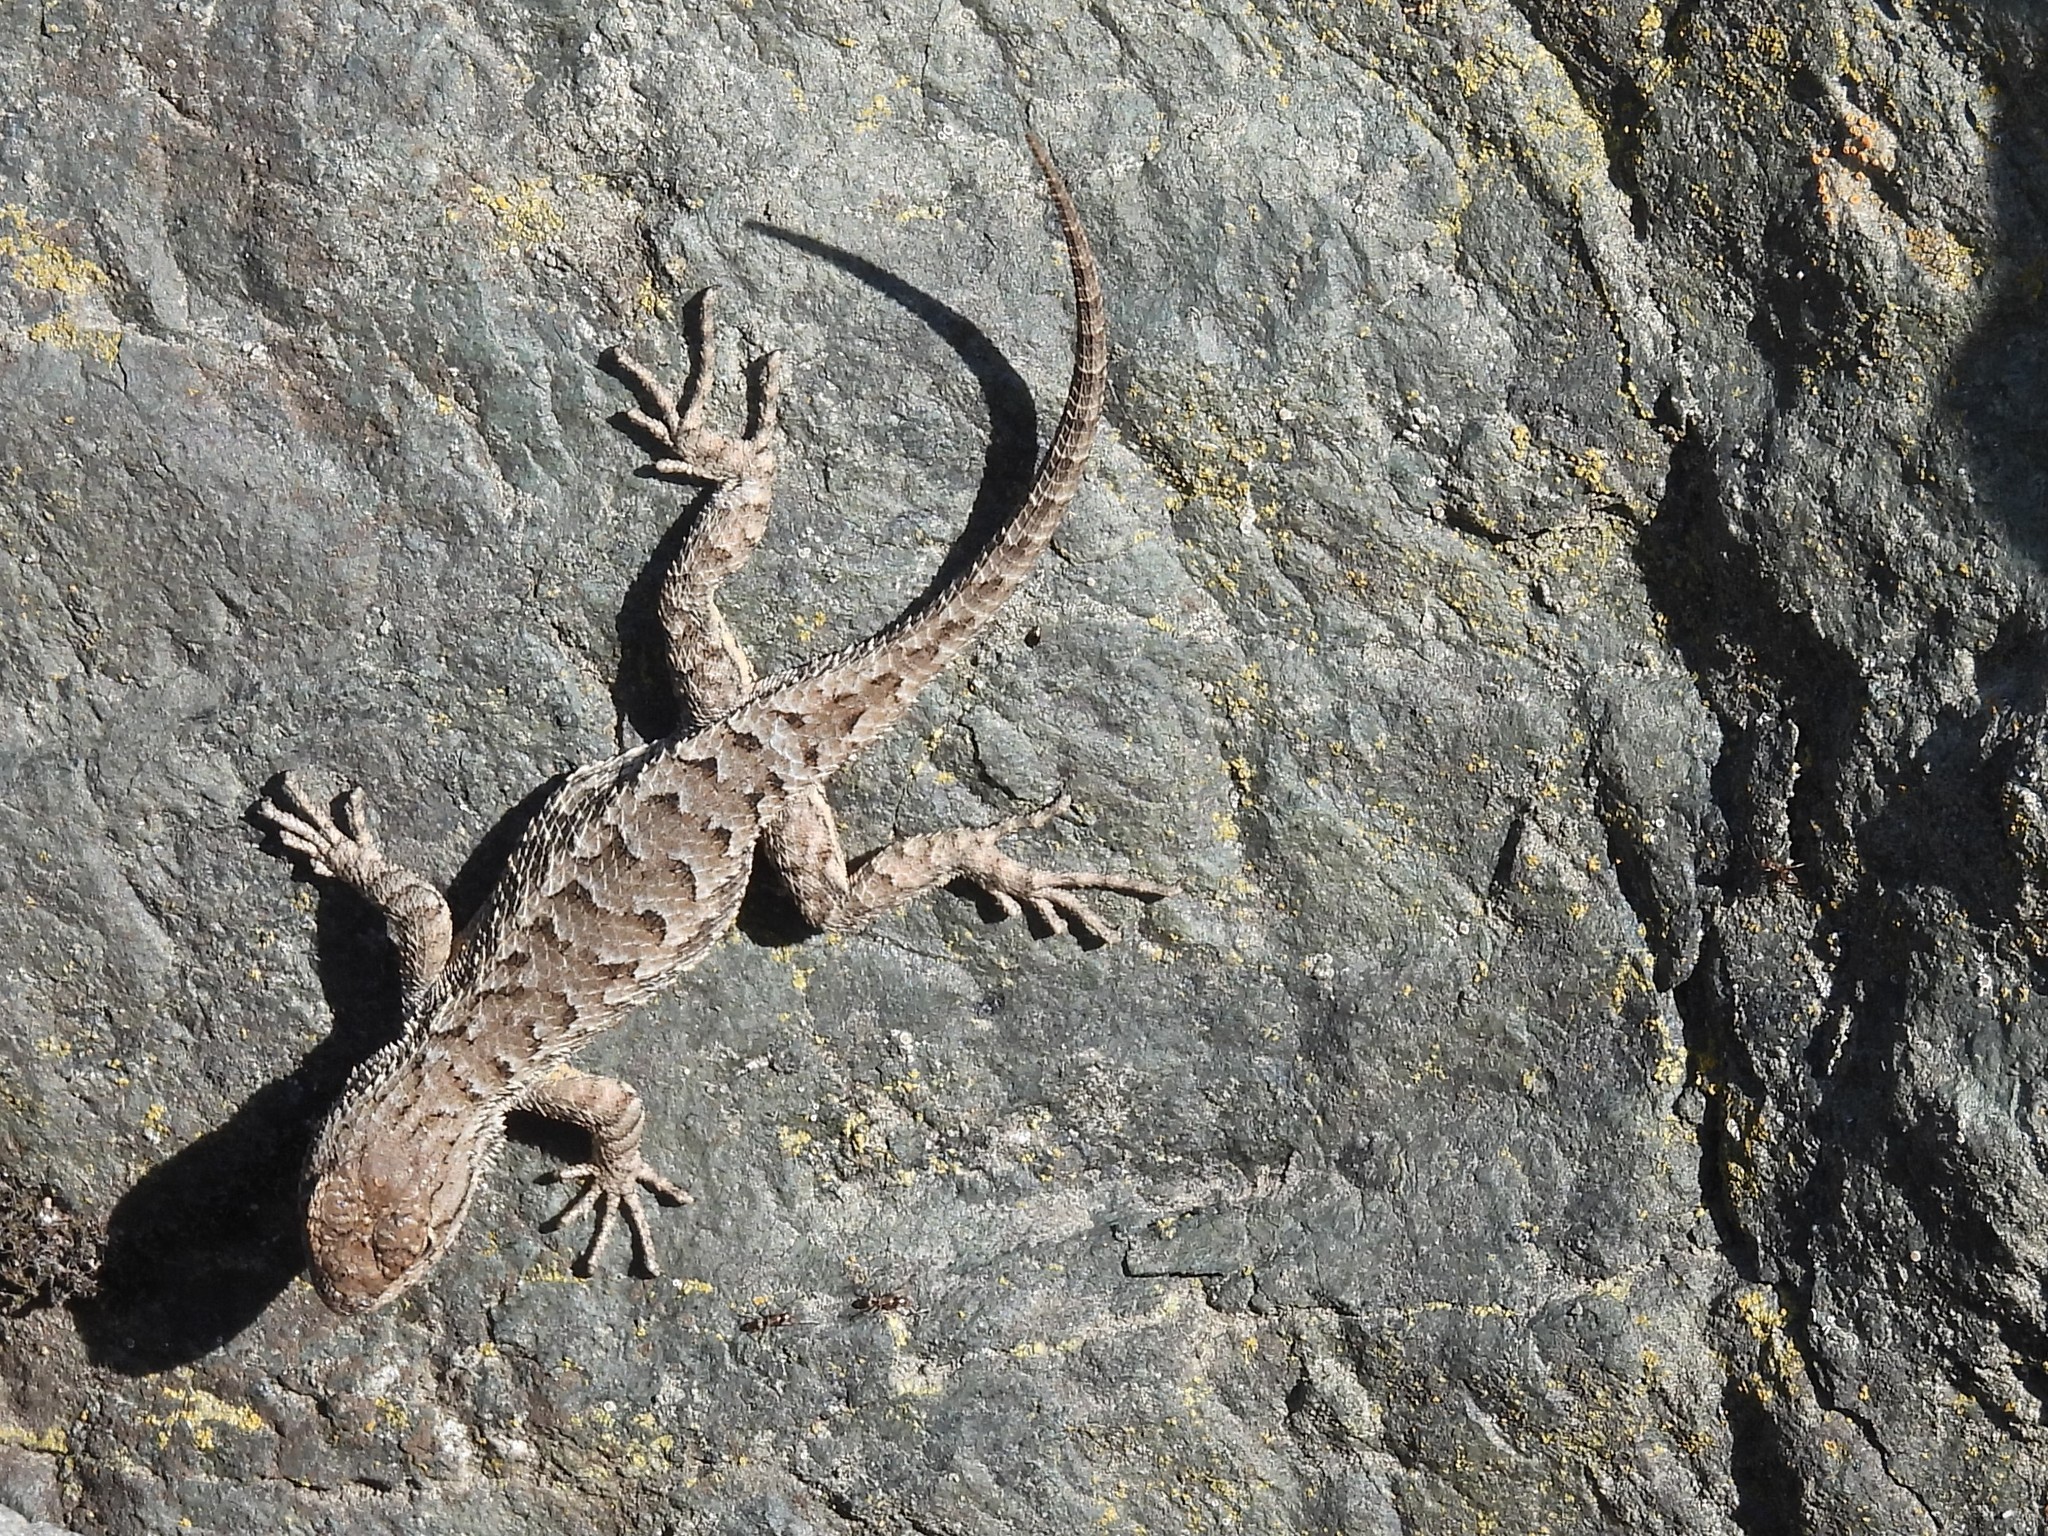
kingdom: Animalia
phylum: Chordata
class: Squamata
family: Phrynosomatidae
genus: Sceloporus
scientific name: Sceloporus occidentalis
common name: Western fence lizard
